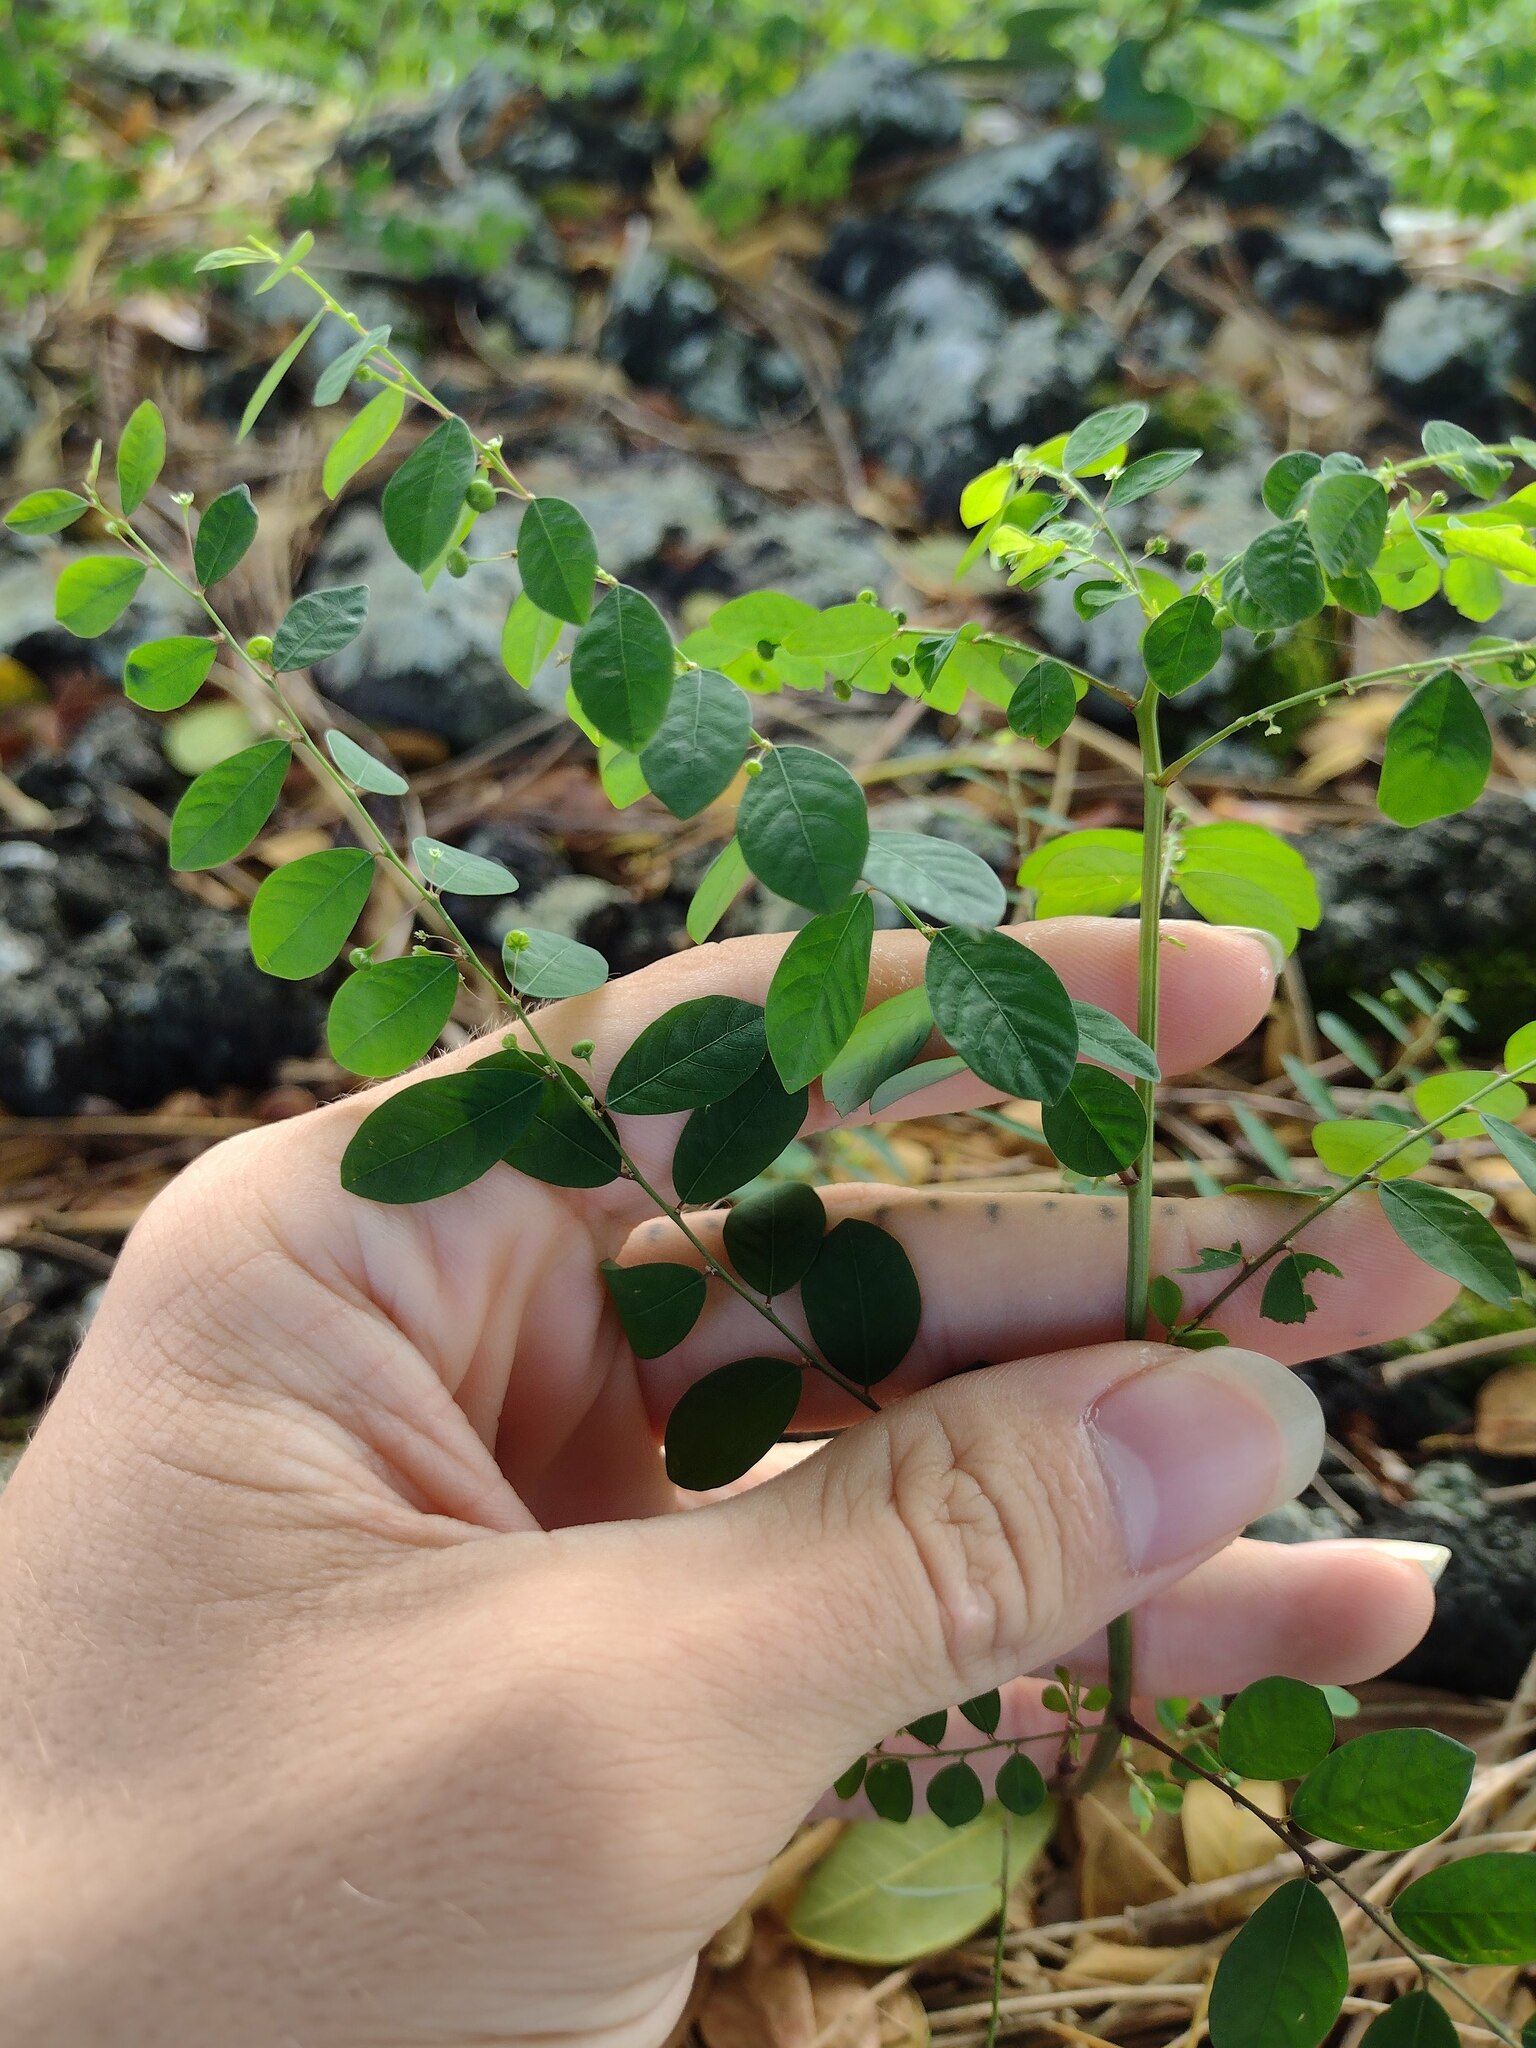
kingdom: Plantae
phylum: Tracheophyta
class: Magnoliopsida
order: Malpighiales
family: Phyllanthaceae
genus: Phyllanthus
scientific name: Phyllanthus tenellus
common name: Mascarene island leaf-flower
